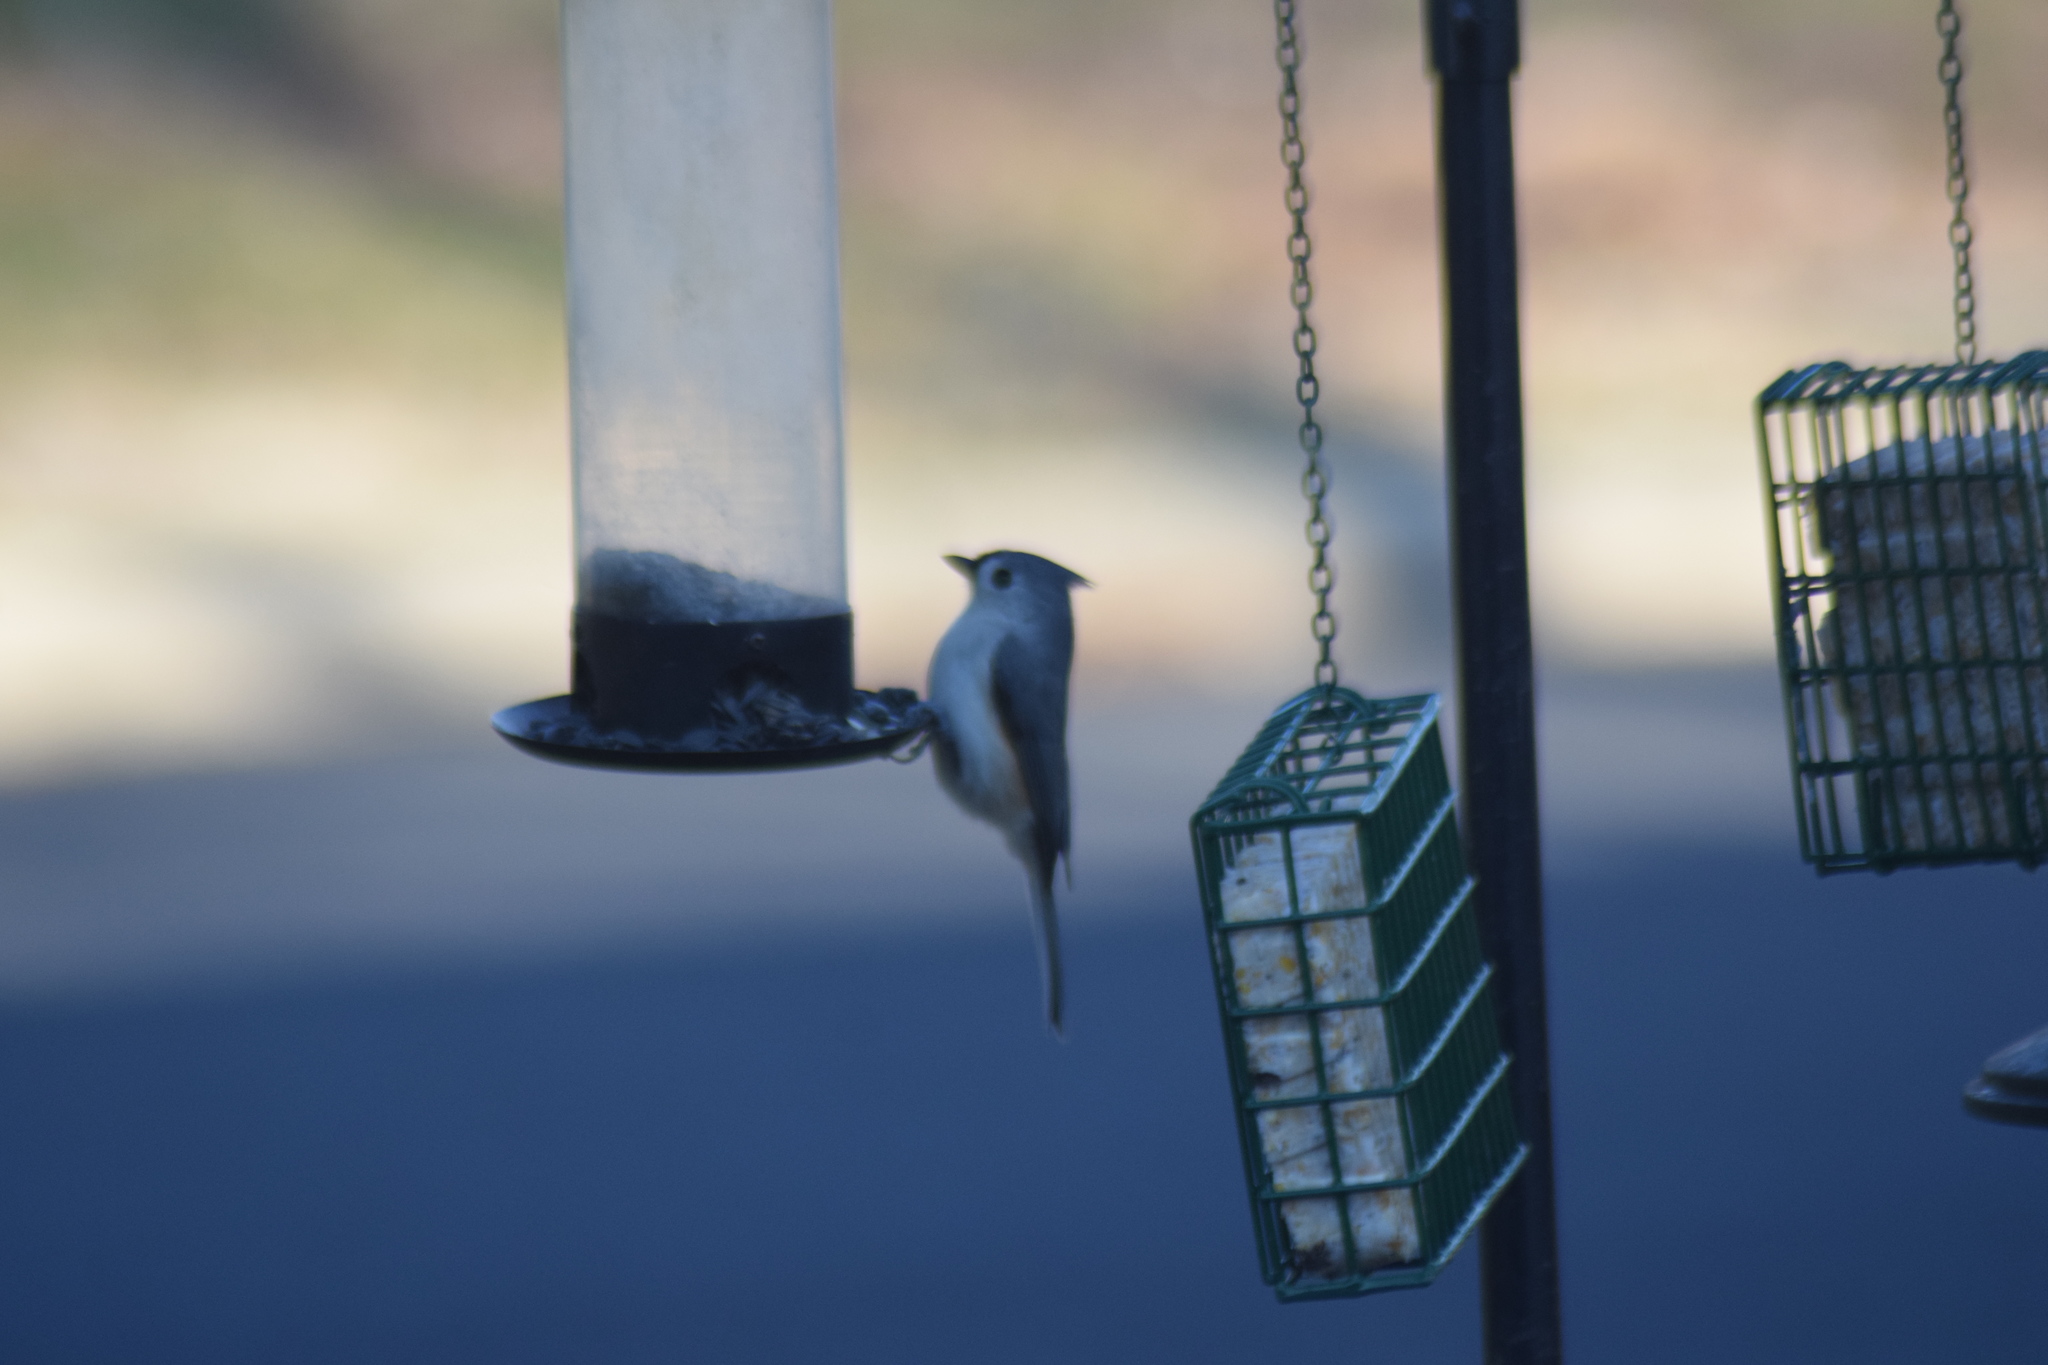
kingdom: Animalia
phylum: Chordata
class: Aves
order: Passeriformes
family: Paridae
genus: Baeolophus
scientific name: Baeolophus bicolor
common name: Tufted titmouse
